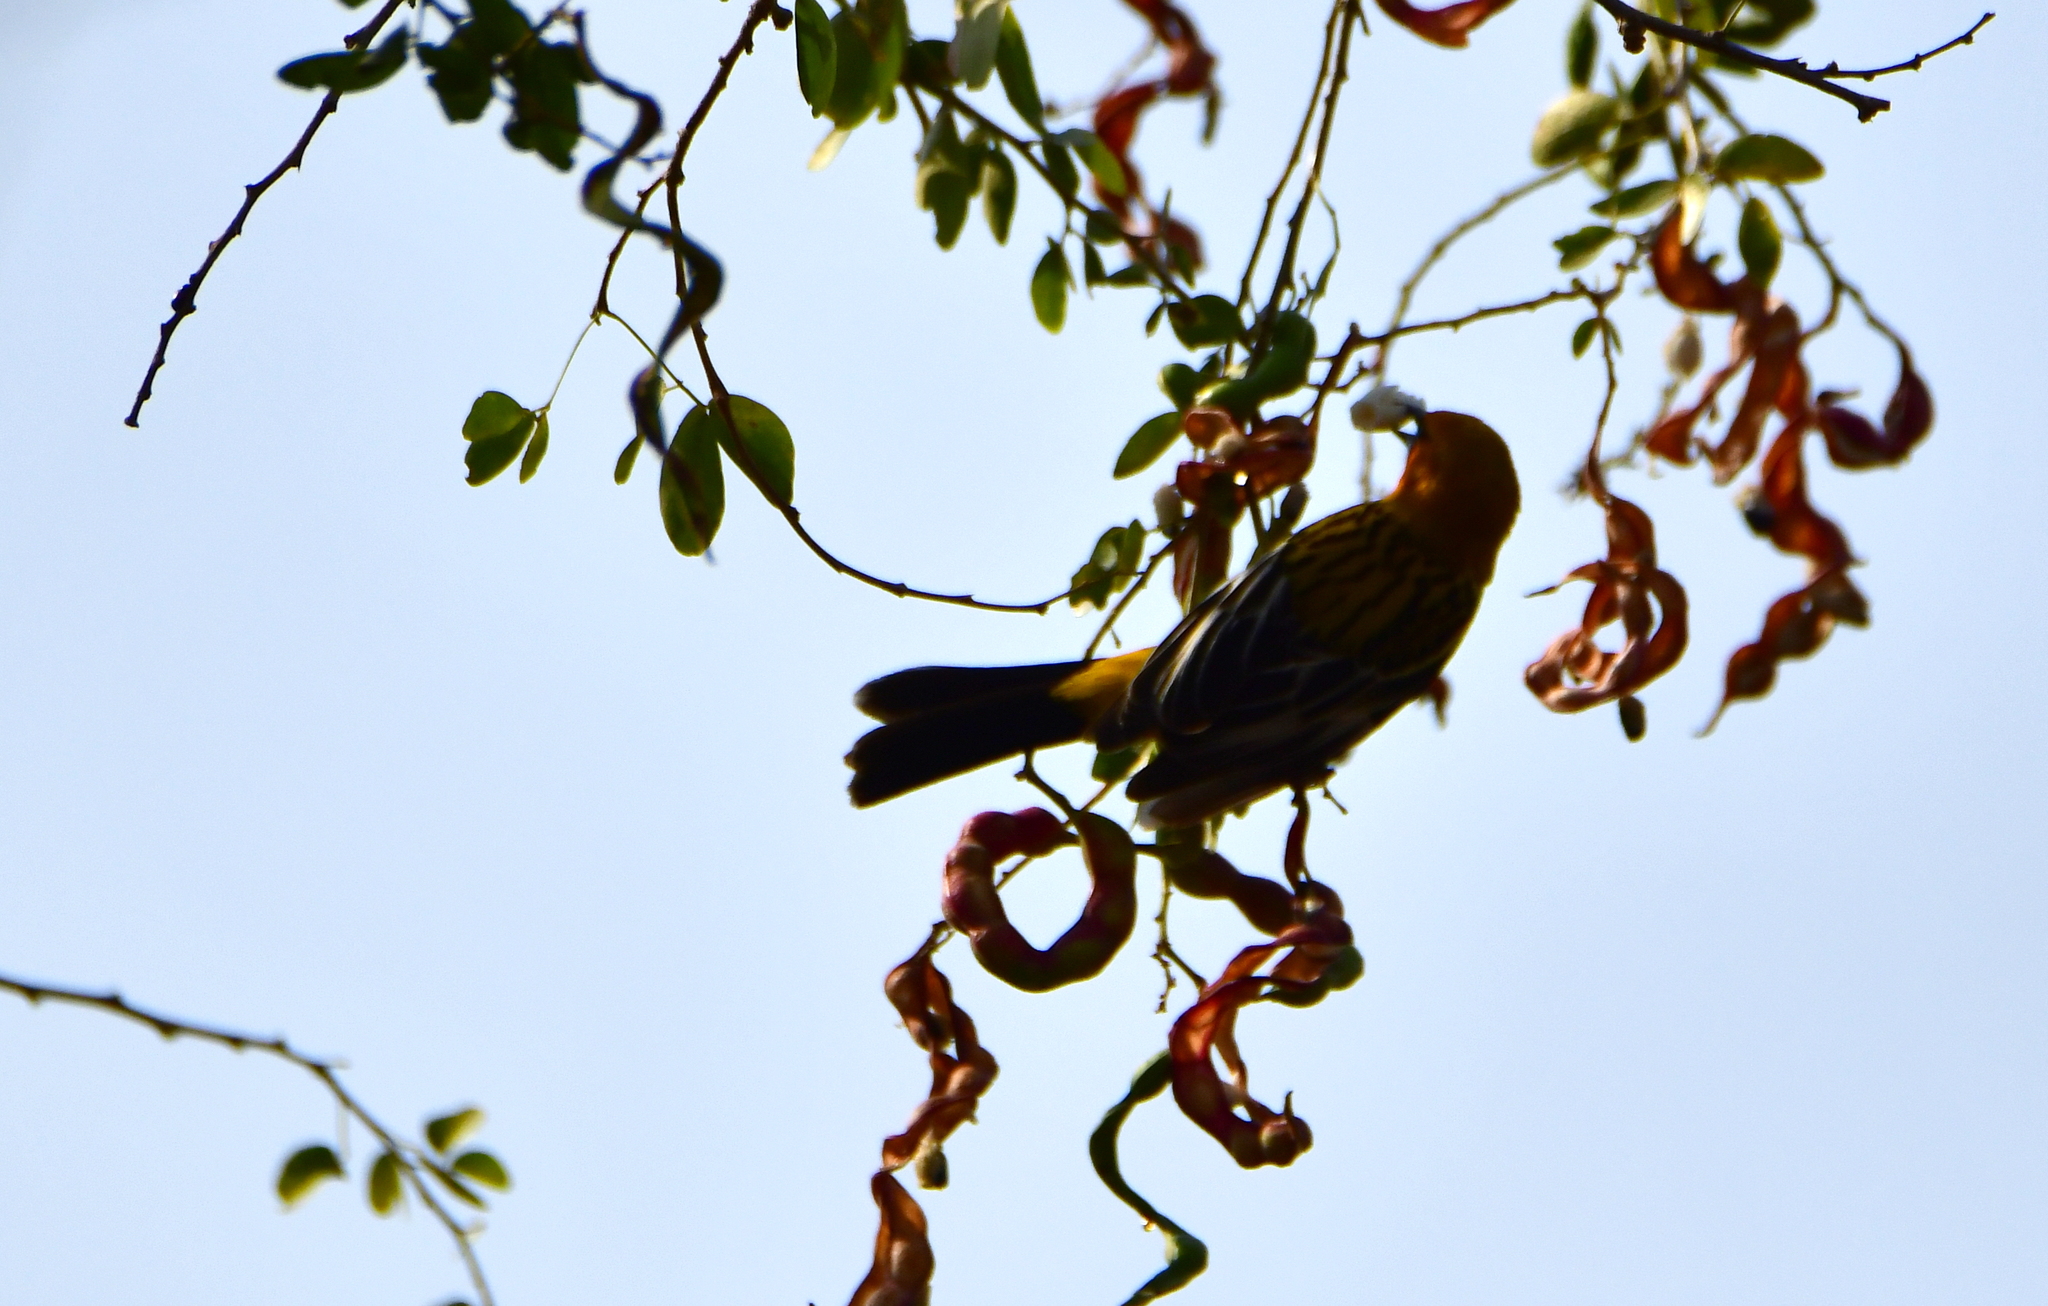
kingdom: Animalia
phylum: Chordata
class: Aves
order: Passeriformes
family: Icteridae
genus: Icterus
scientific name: Icterus pustulatus
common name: Streak-backed oriole
